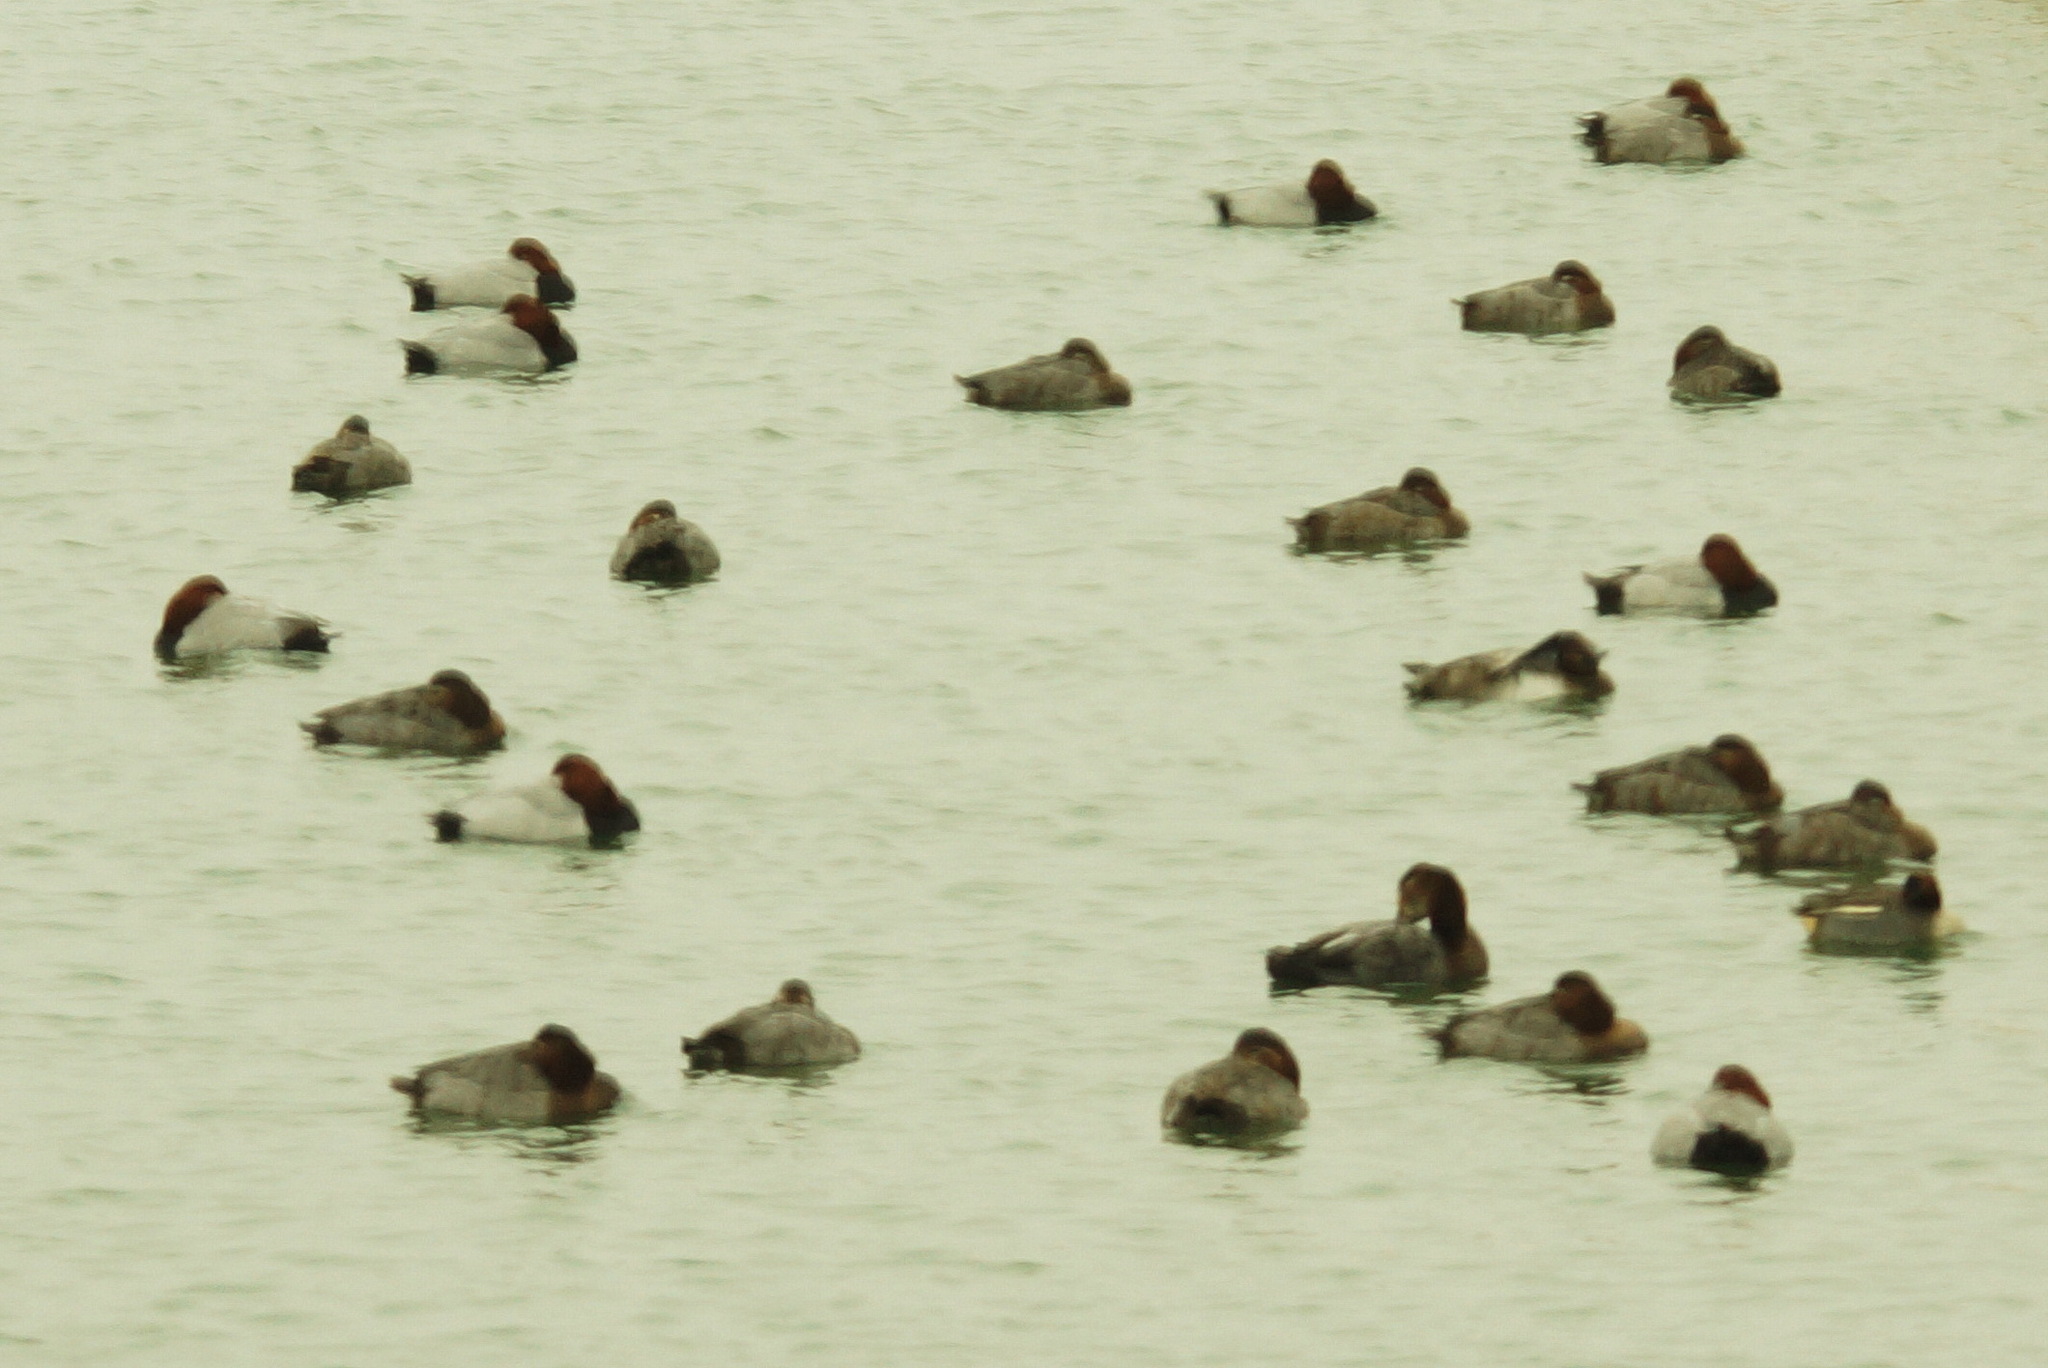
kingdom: Animalia
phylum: Chordata
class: Aves
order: Anseriformes
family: Anatidae
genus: Aythya
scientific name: Aythya ferina
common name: Common pochard
